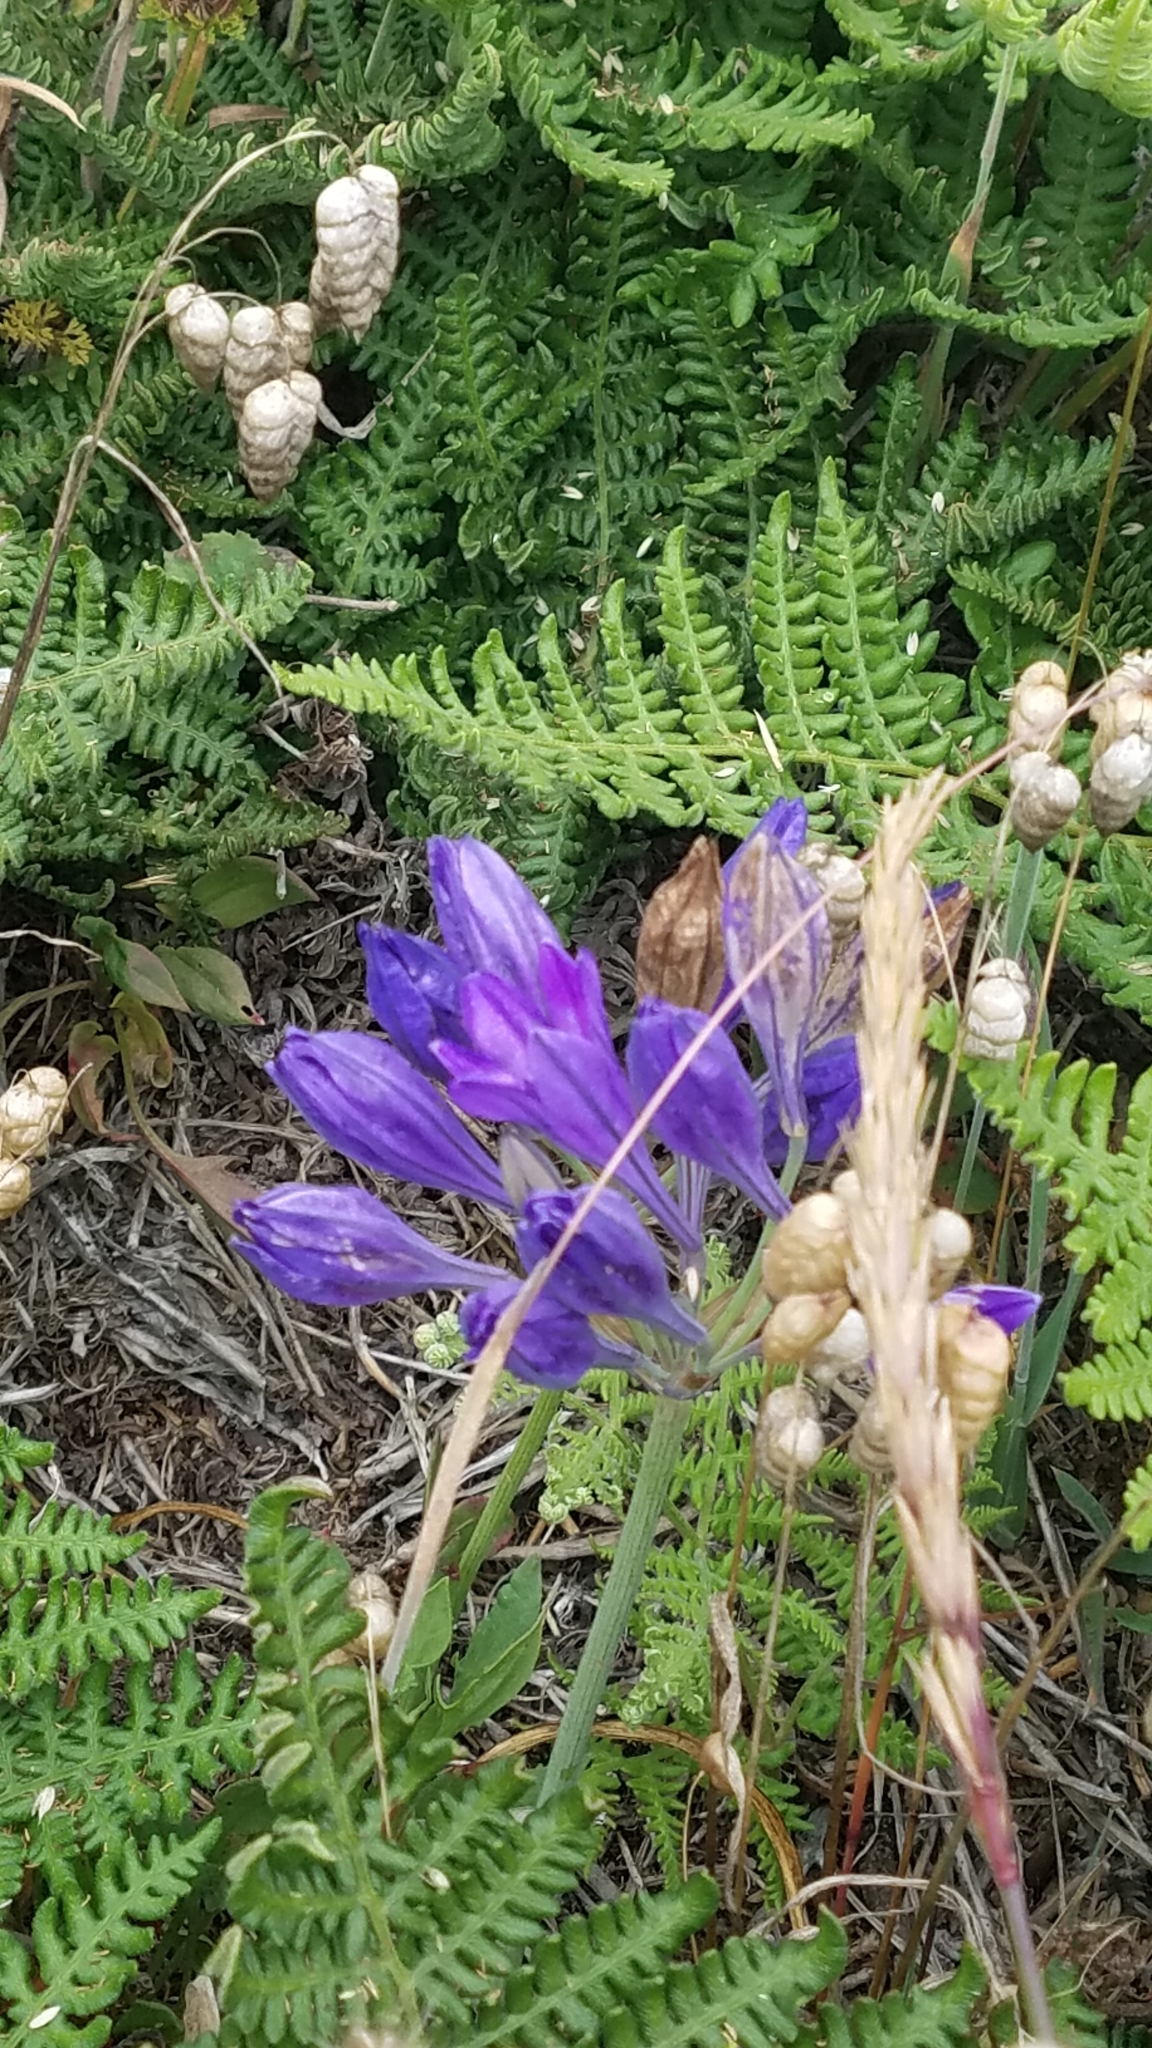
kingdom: Plantae
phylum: Tracheophyta
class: Liliopsida
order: Asparagales
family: Asparagaceae
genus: Triteleia
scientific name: Triteleia laxa
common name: Triplet-lily
